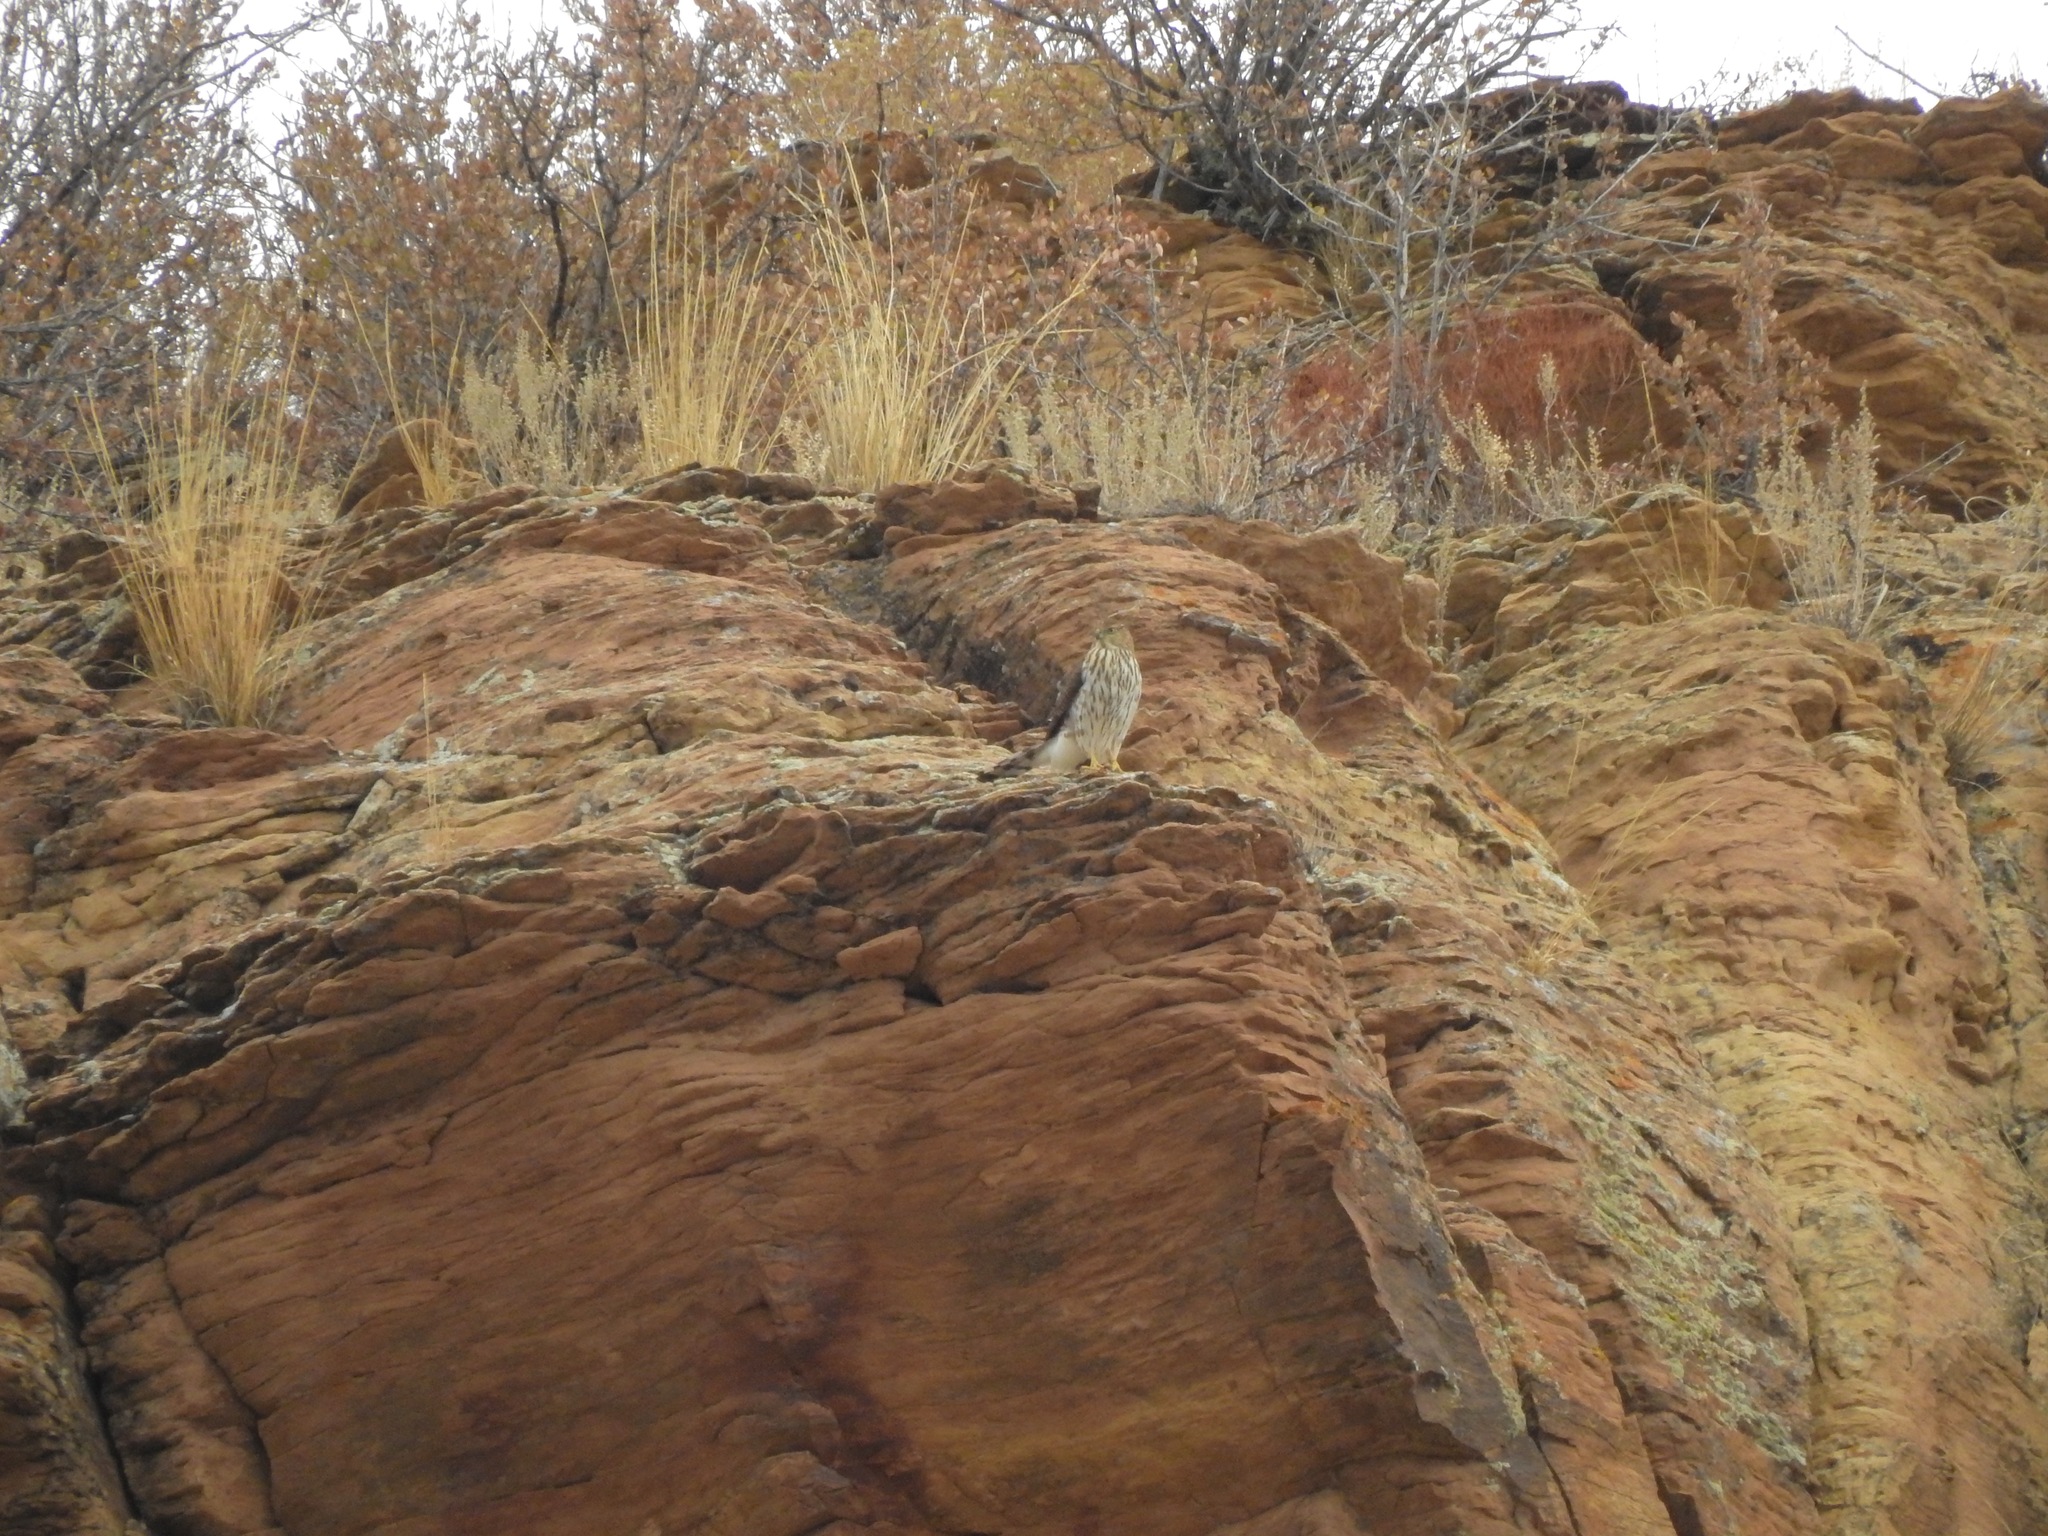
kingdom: Animalia
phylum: Chordata
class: Aves
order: Accipitriformes
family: Accipitridae
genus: Accipiter
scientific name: Accipiter cooperii
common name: Cooper's hawk
